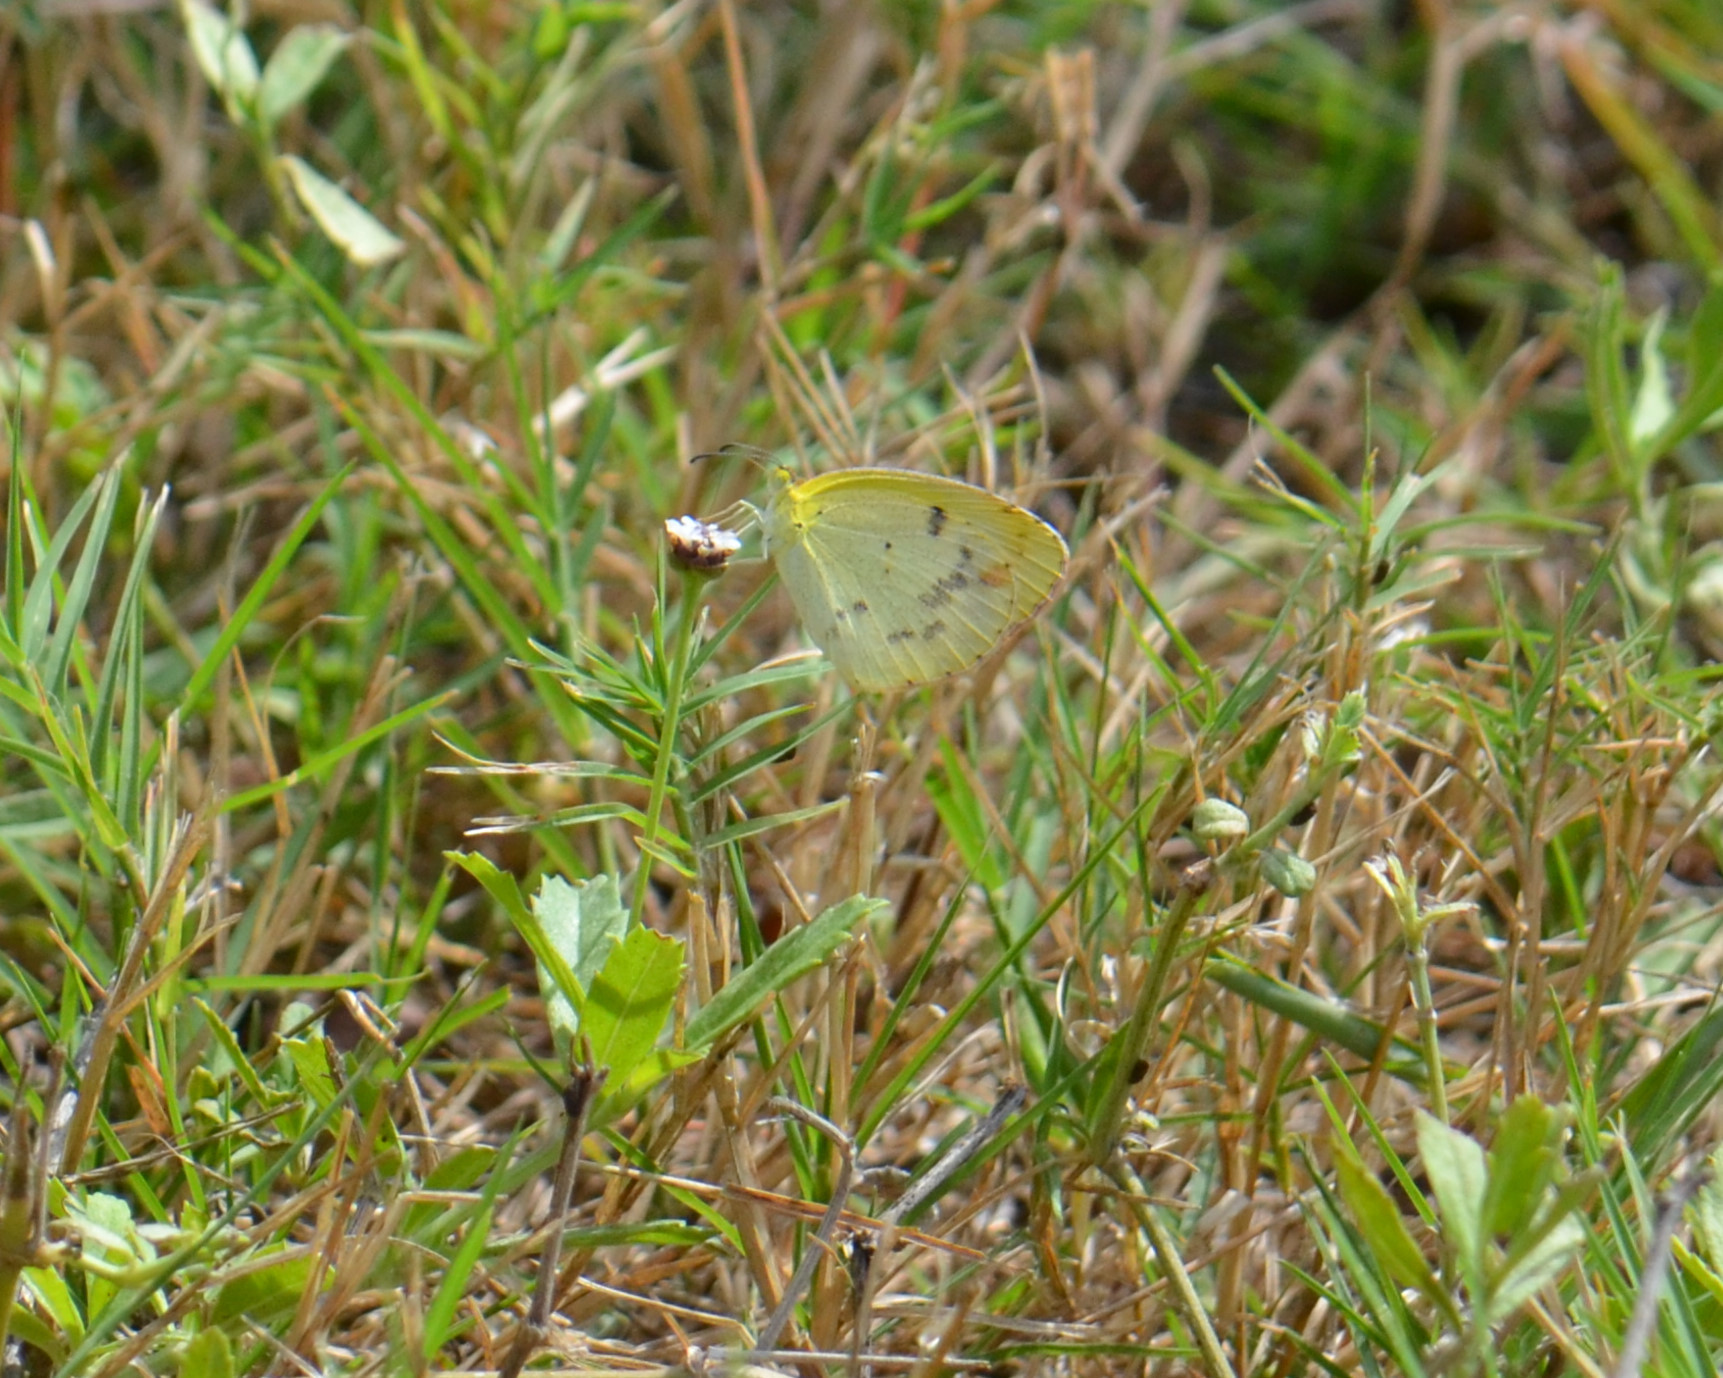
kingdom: Animalia
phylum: Arthropoda
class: Insecta
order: Lepidoptera
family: Pieridae
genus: Pyrisitia
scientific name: Pyrisitia lisa
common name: Little yellow
